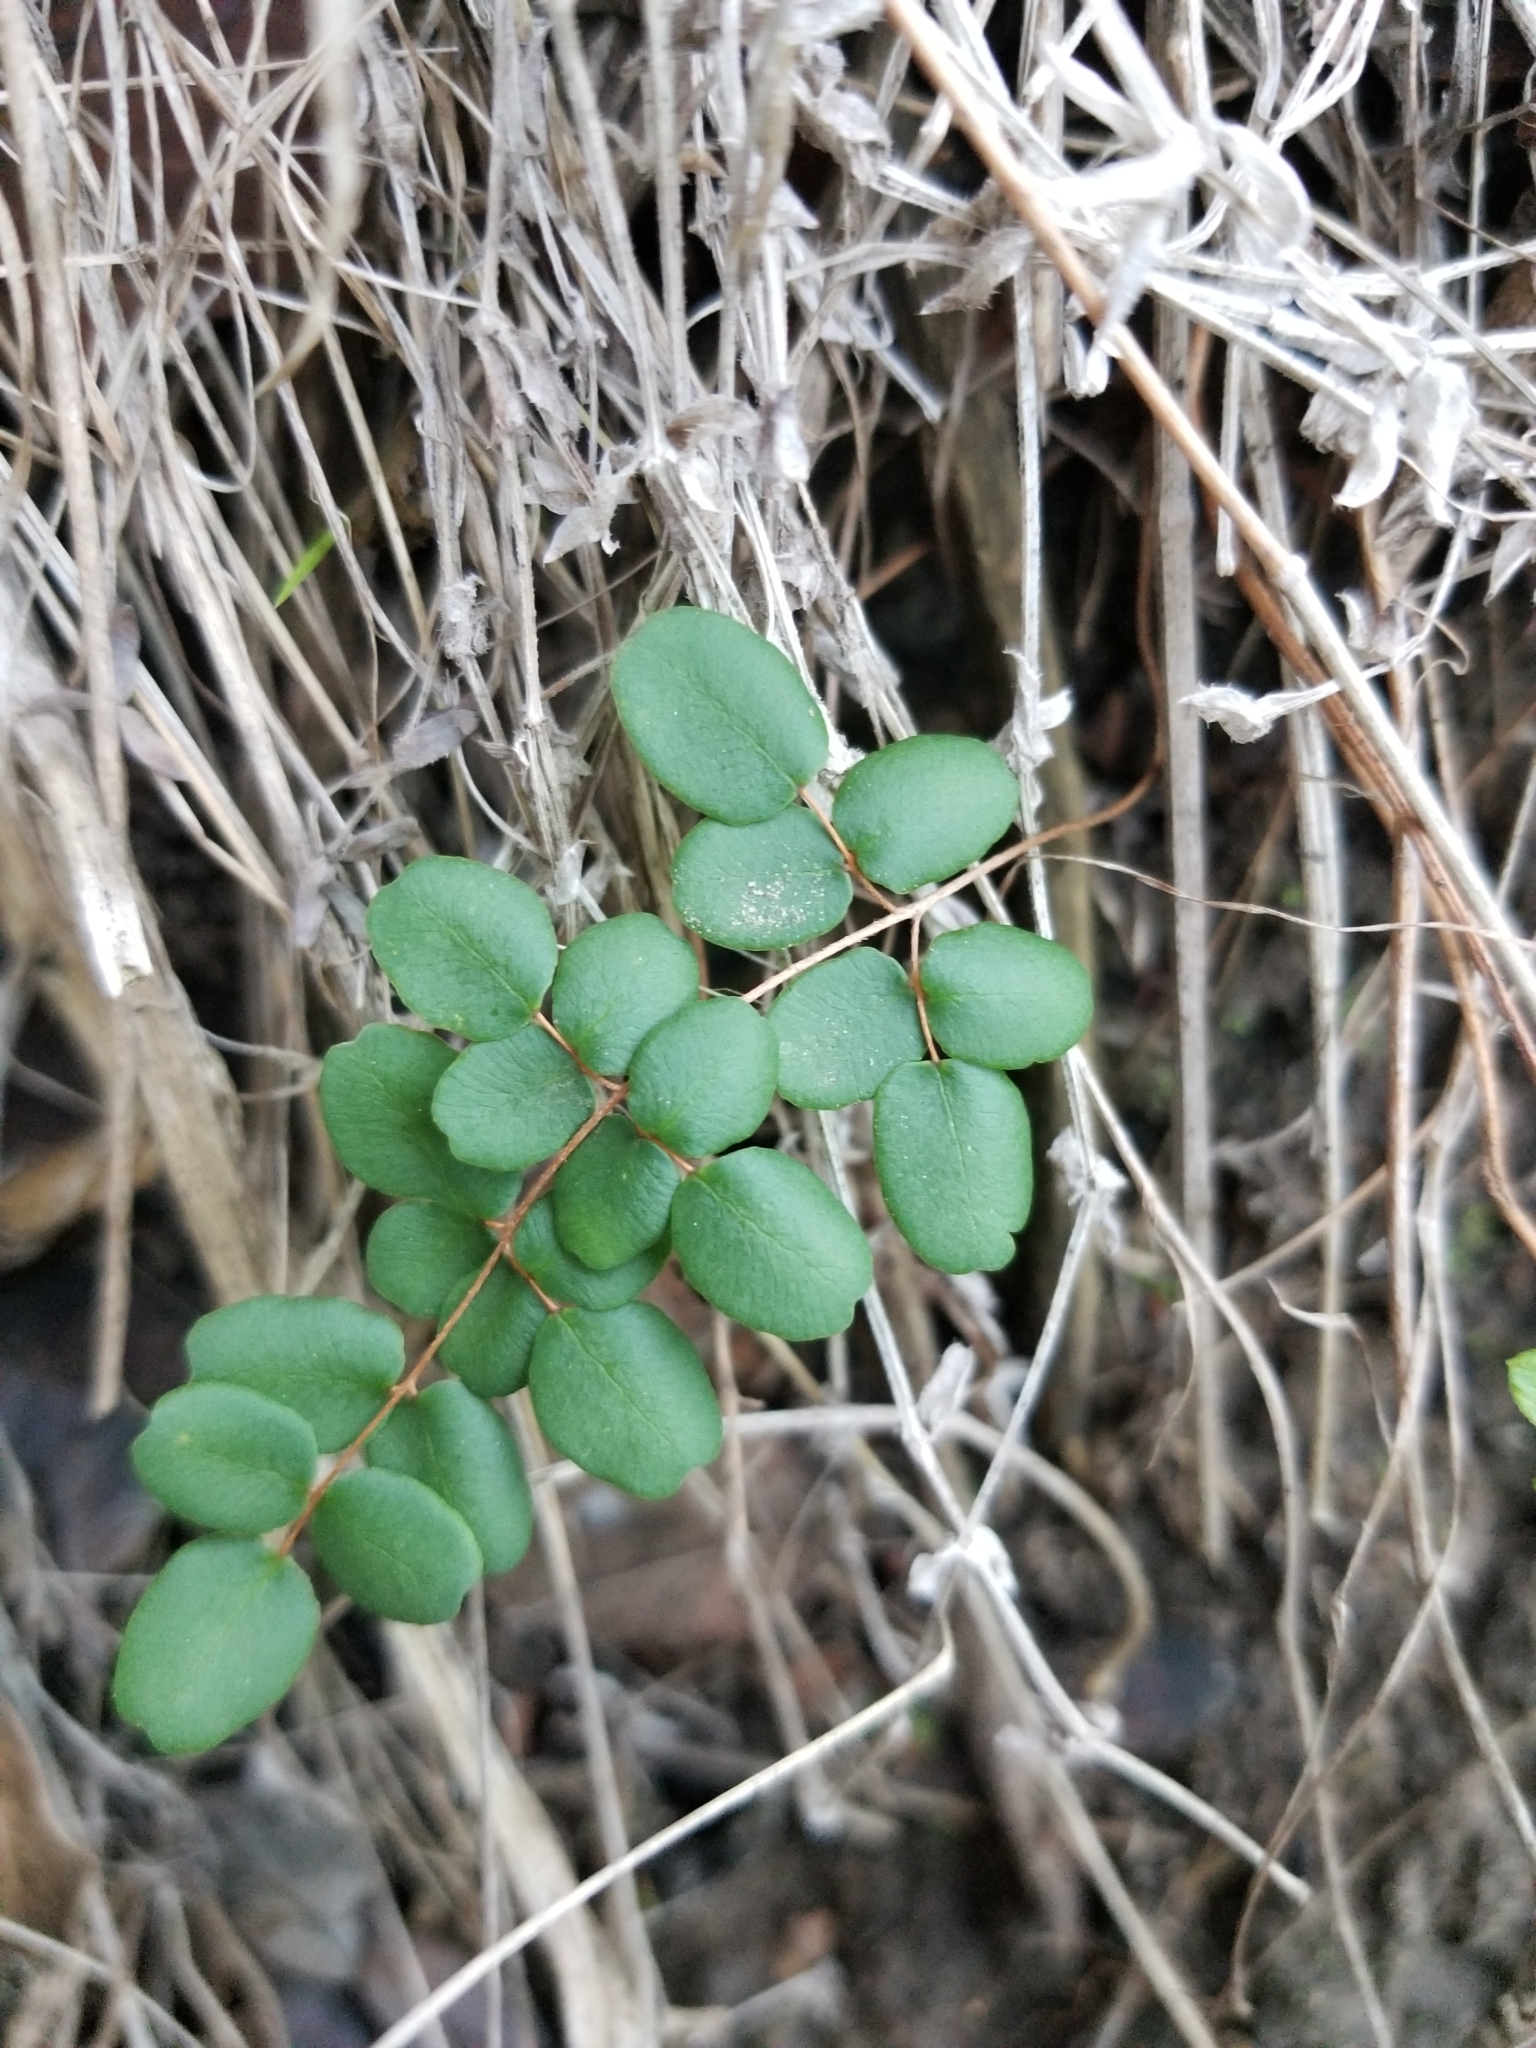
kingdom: Plantae
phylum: Tracheophyta
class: Polypodiopsida
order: Polypodiales
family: Pteridaceae
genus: Pellaea
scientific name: Pellaea andromedifolia
